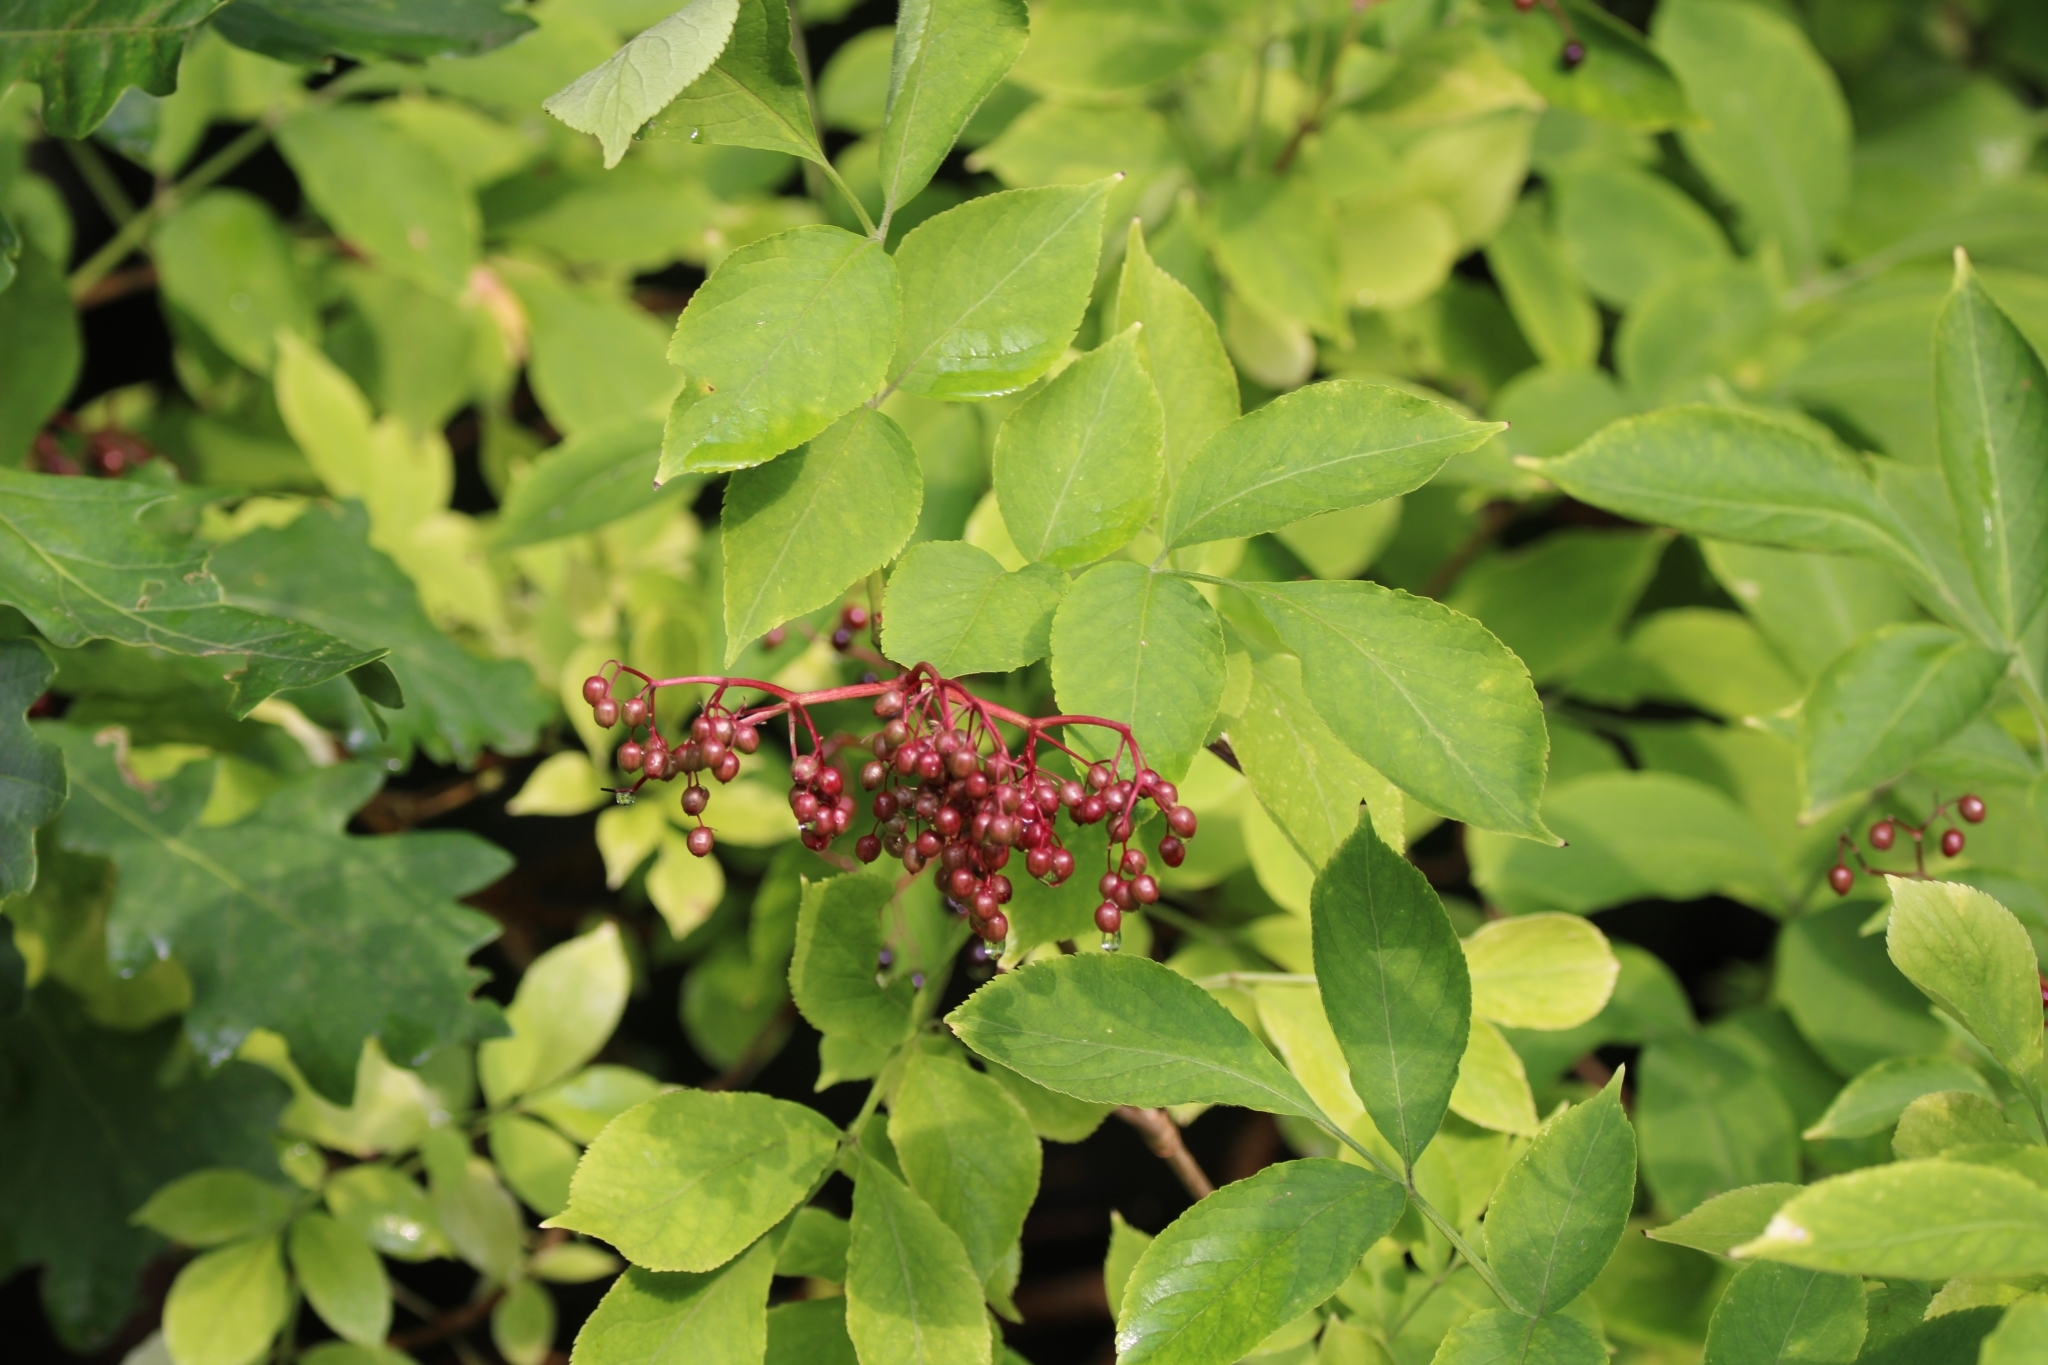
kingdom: Plantae
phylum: Tracheophyta
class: Magnoliopsida
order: Dipsacales
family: Viburnaceae
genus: Sambucus
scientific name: Sambucus nigra
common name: Elder
